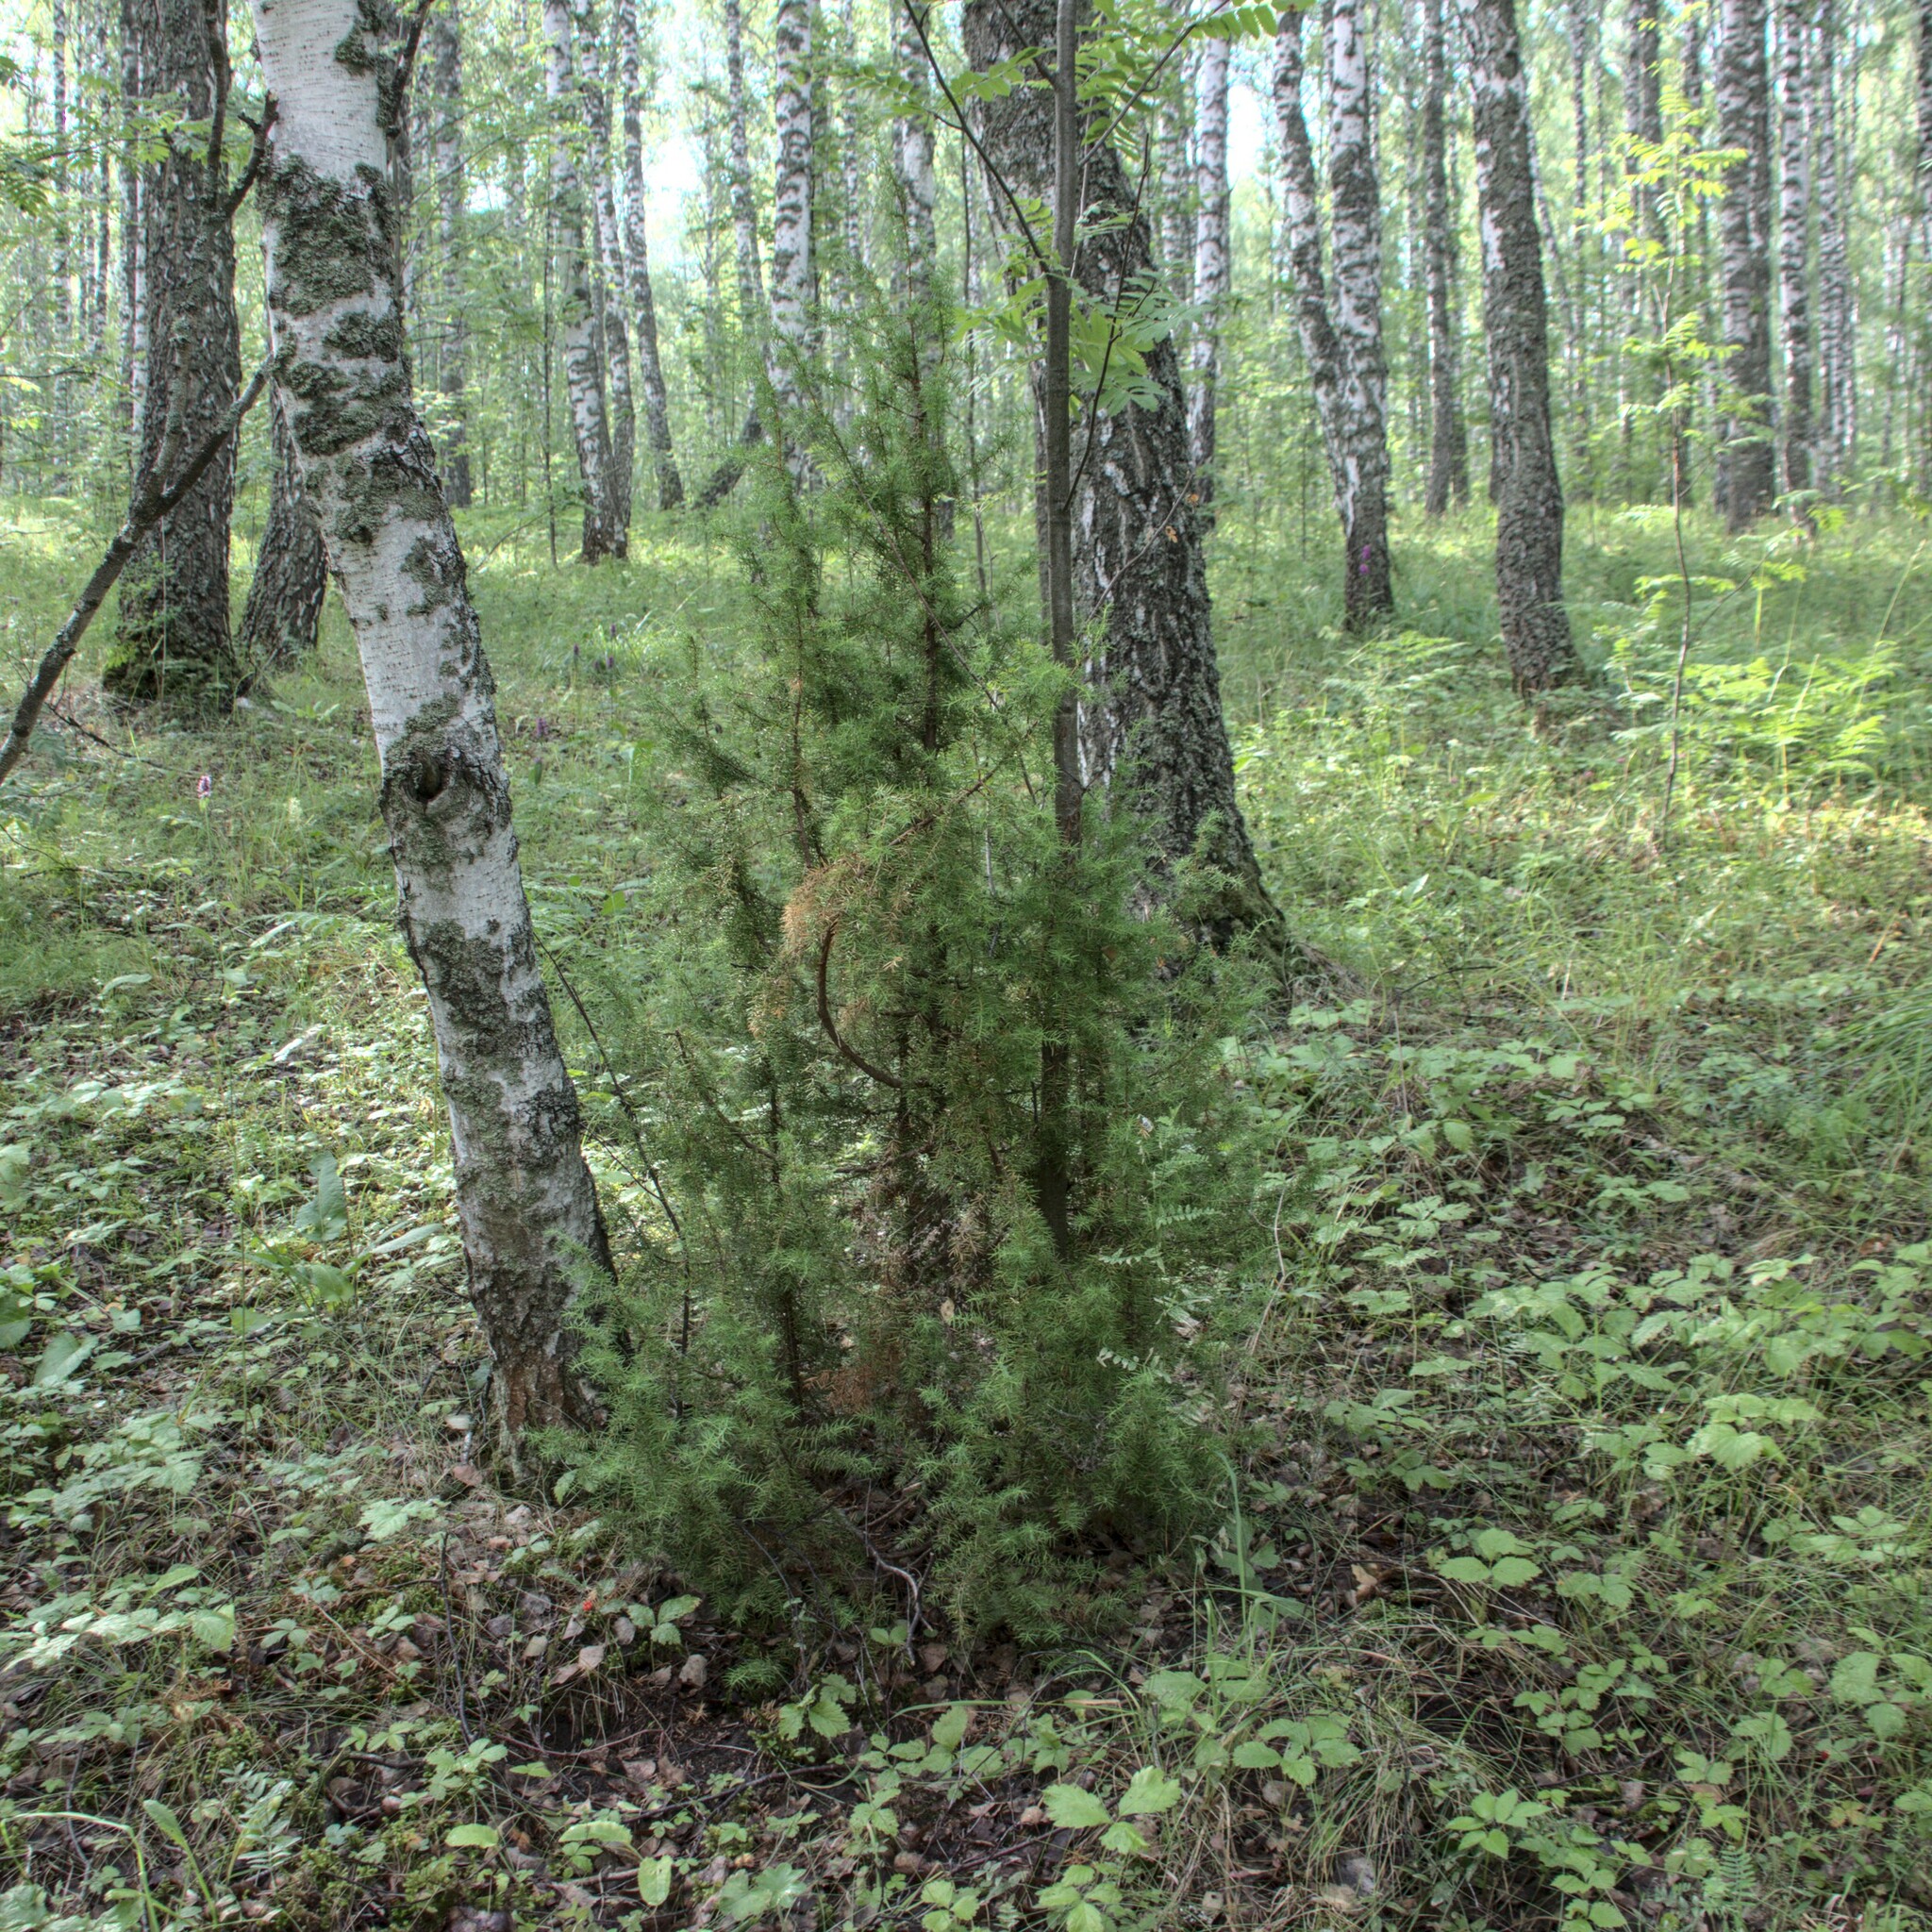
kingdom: Plantae
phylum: Tracheophyta
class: Pinopsida
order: Pinales
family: Cupressaceae
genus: Juniperus
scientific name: Juniperus communis
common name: Common juniper
